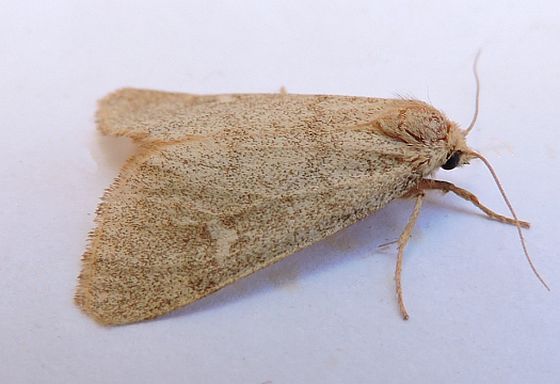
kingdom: Animalia
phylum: Arthropoda
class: Insecta
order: Lepidoptera
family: Noctuidae
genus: Narthecophora
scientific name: Narthecophora pulverea
